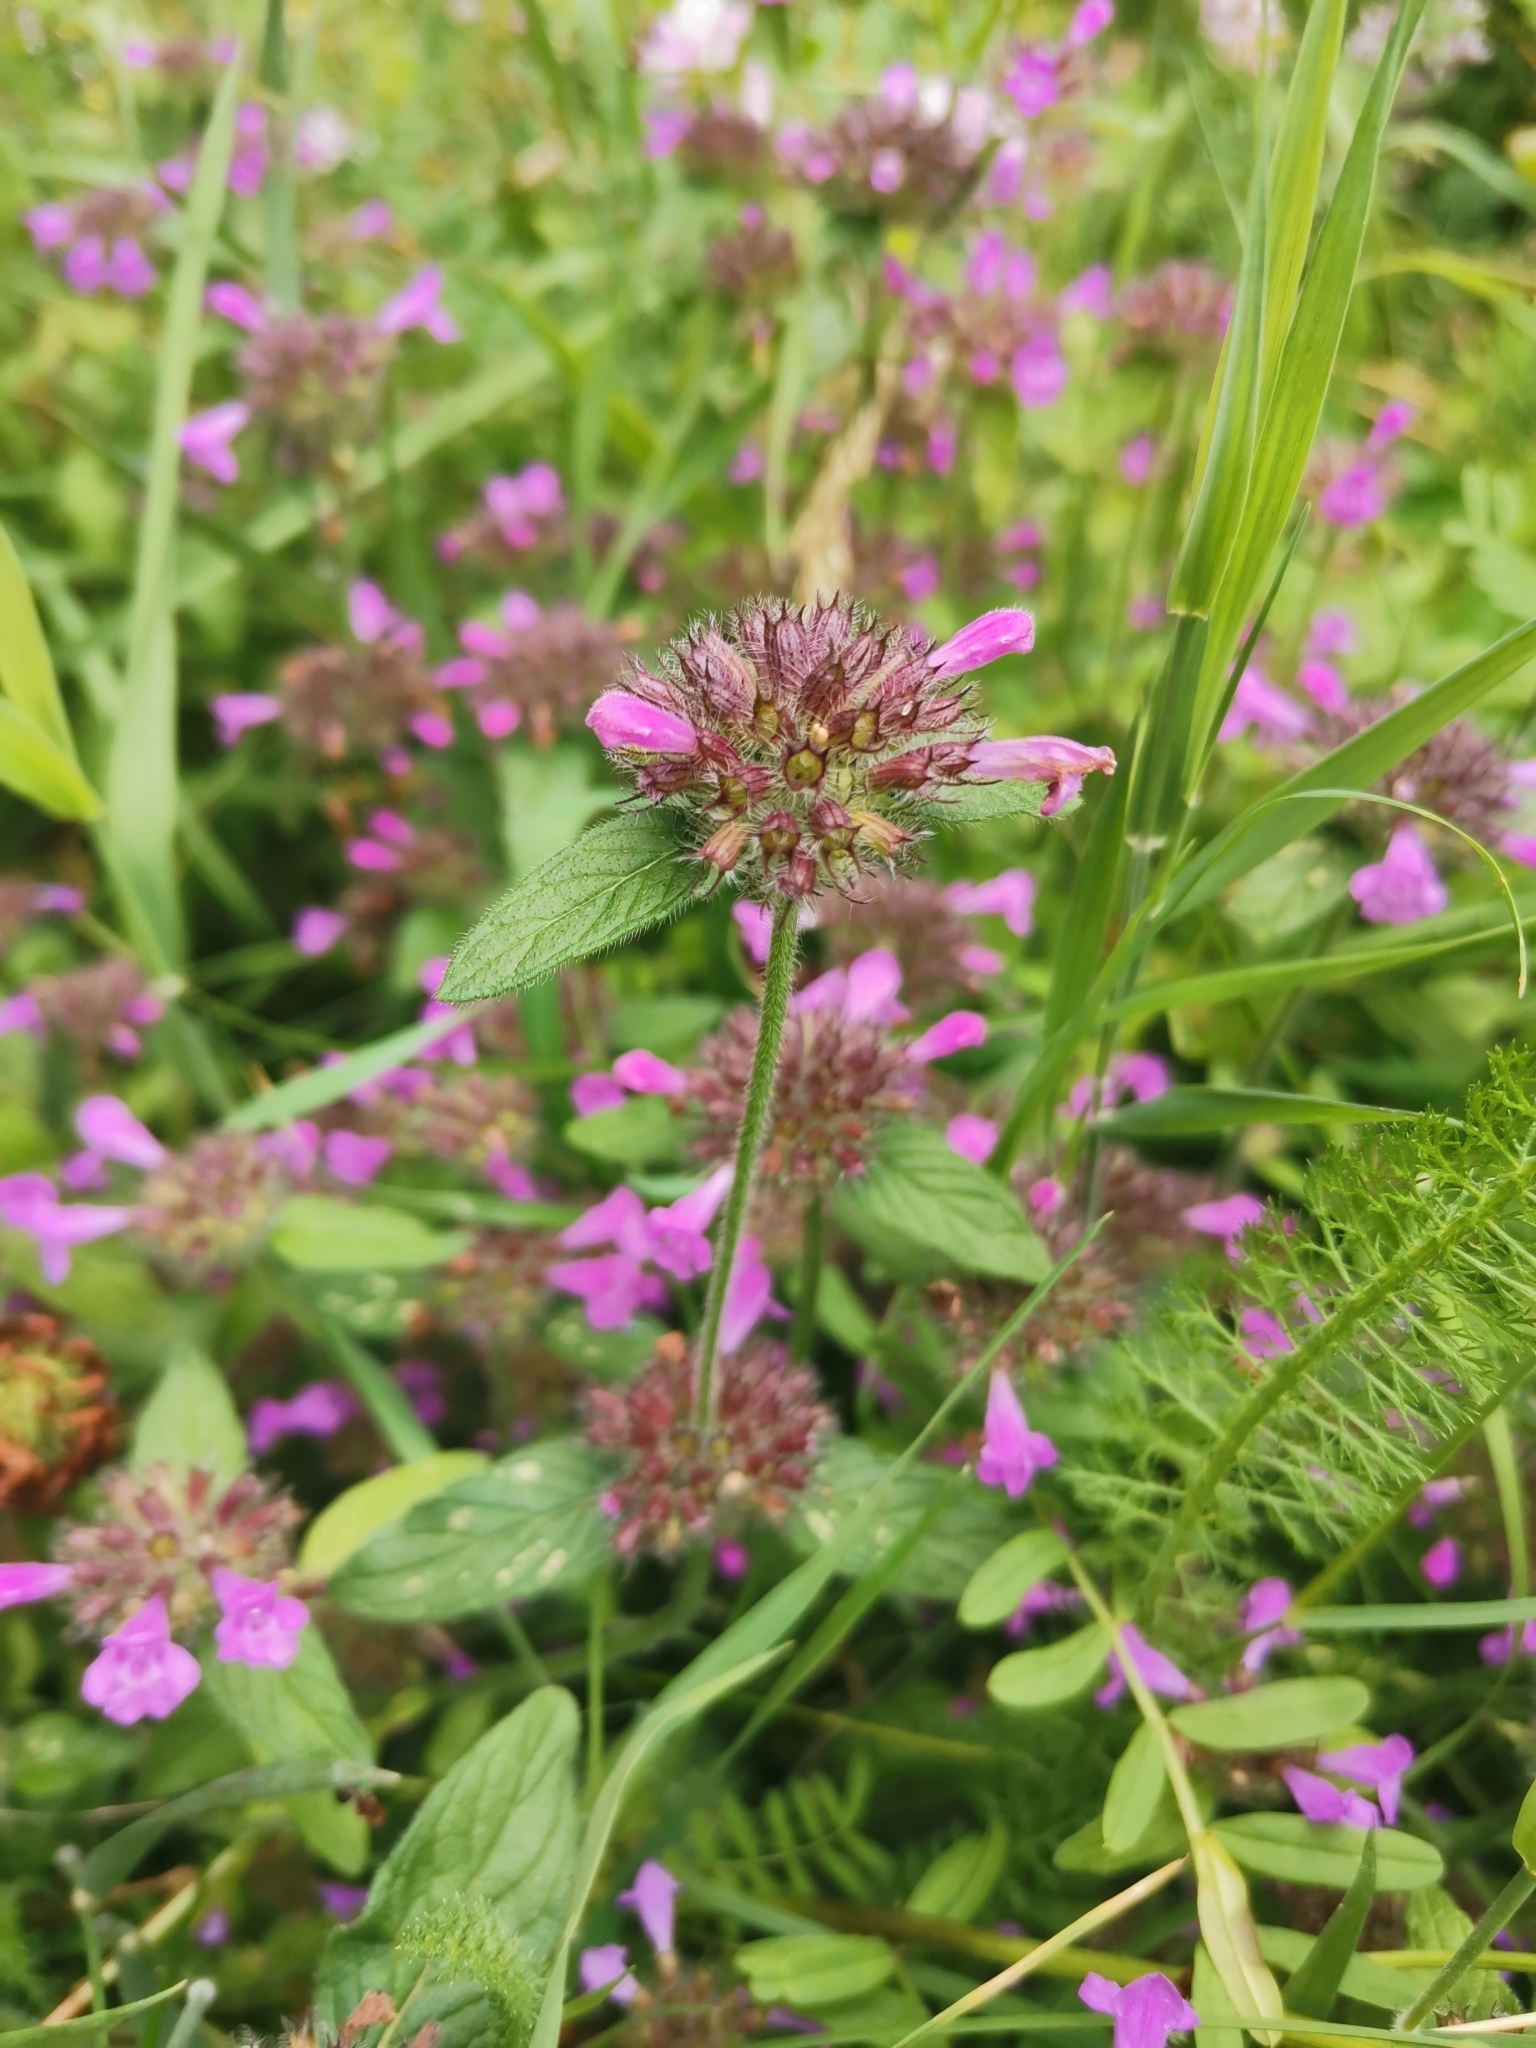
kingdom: Plantae
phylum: Tracheophyta
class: Magnoliopsida
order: Lamiales
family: Lamiaceae
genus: Clinopodium
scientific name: Clinopodium vulgare
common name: Wild basil
